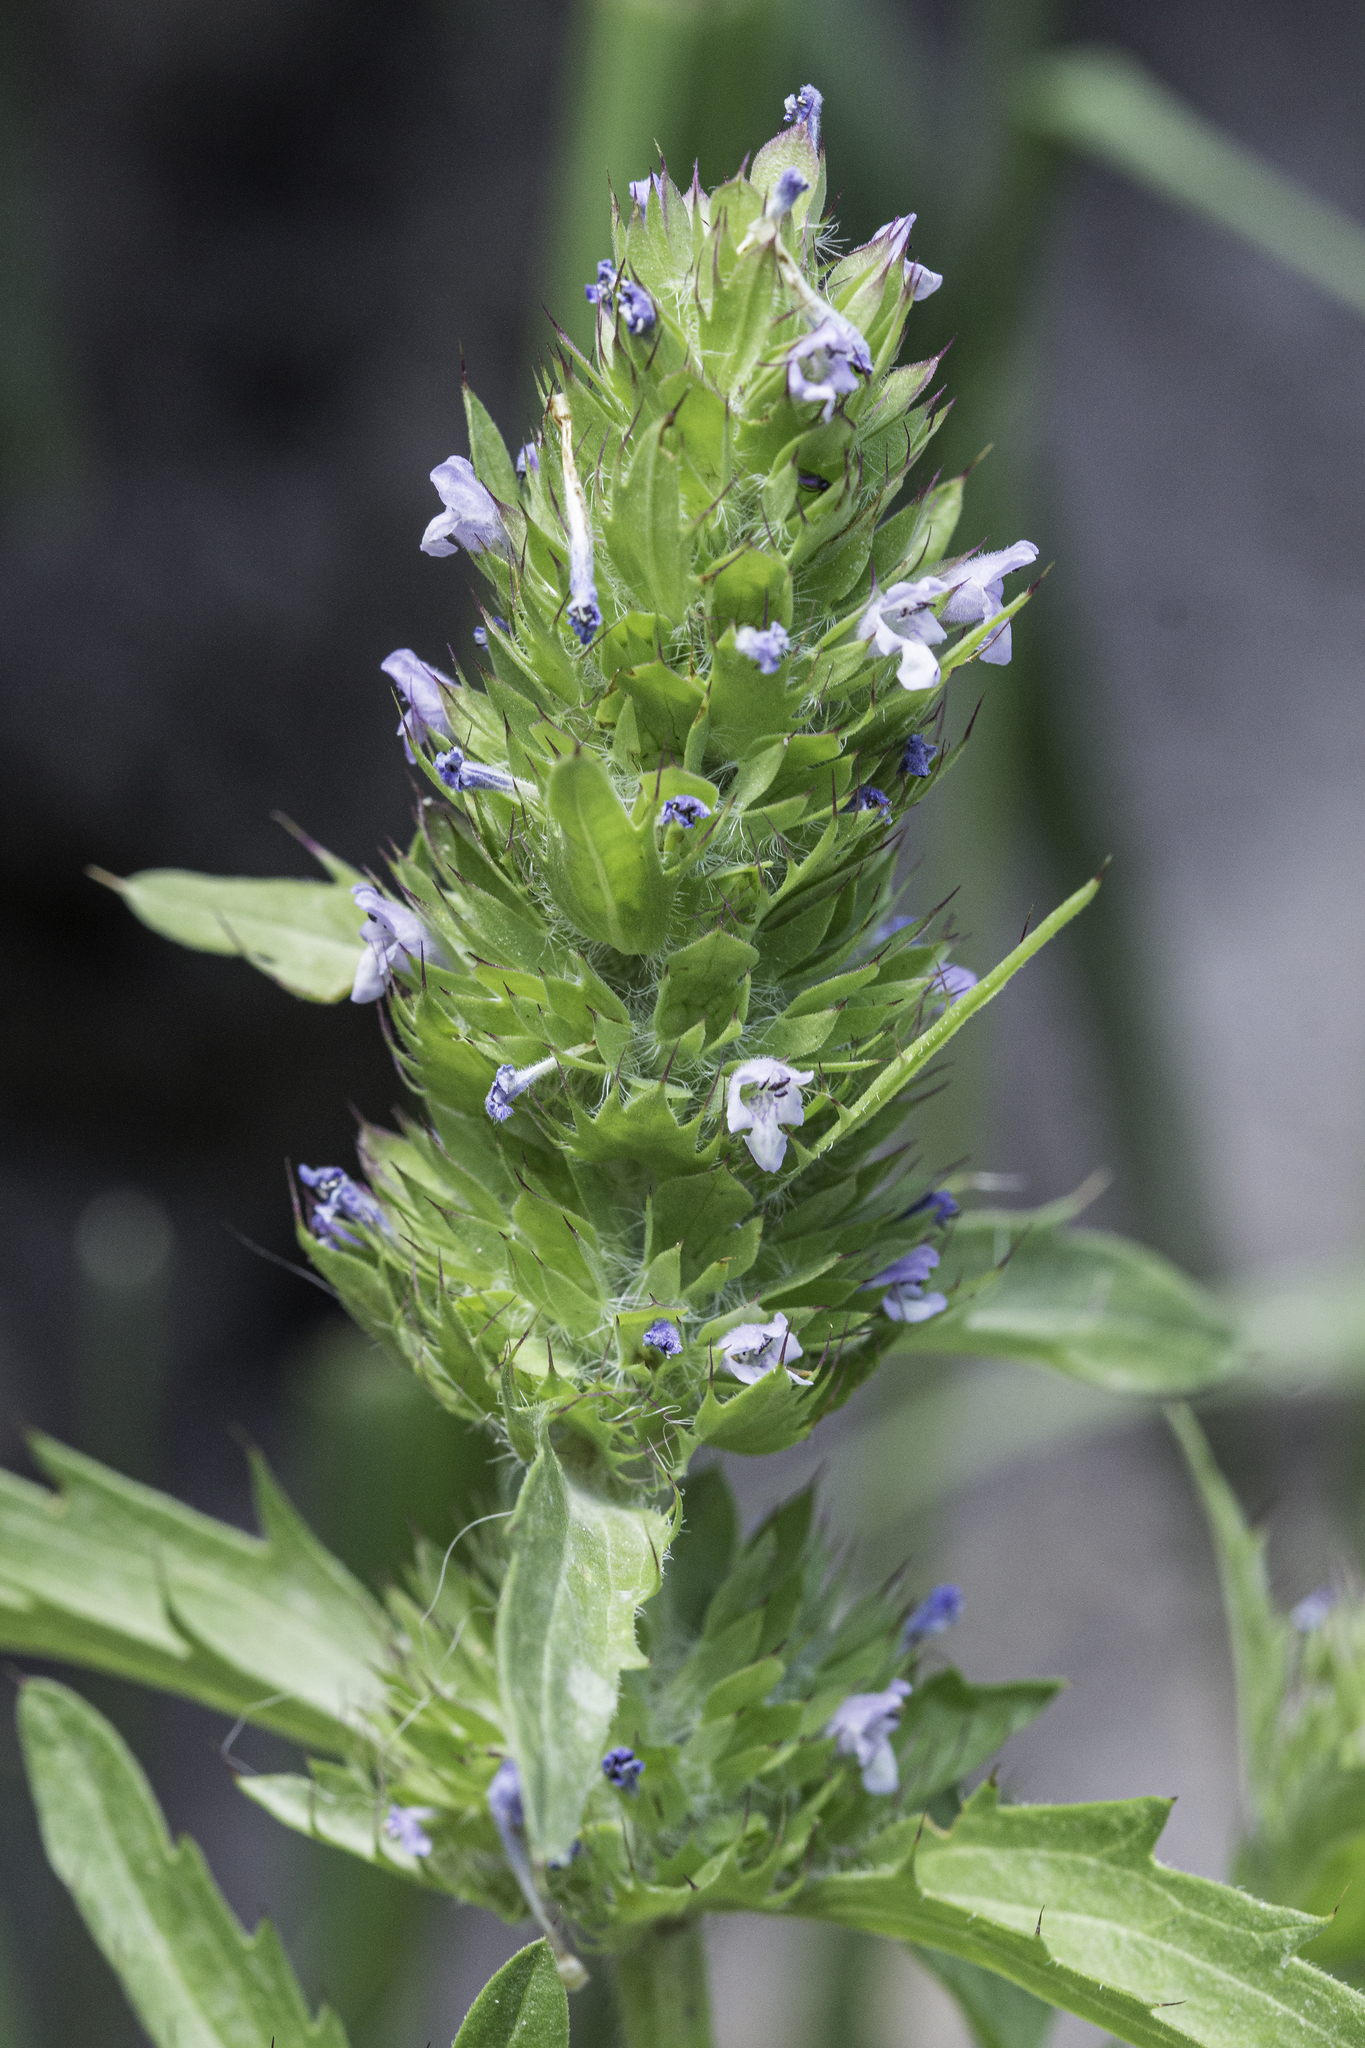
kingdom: Plantae
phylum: Tracheophyta
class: Magnoliopsida
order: Lamiales
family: Lamiaceae
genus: Dracocephalum
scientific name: Dracocephalum parviflorum
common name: American dragonhead
